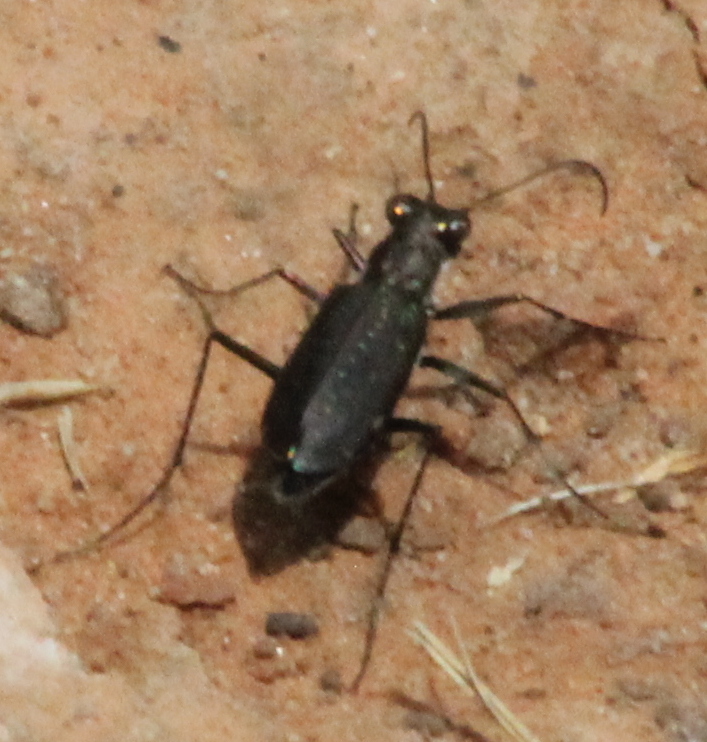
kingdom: Animalia
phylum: Arthropoda
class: Insecta
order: Coleoptera
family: Carabidae
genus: Cicindela
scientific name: Cicindela punctulata
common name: Punctured tiger beetle
